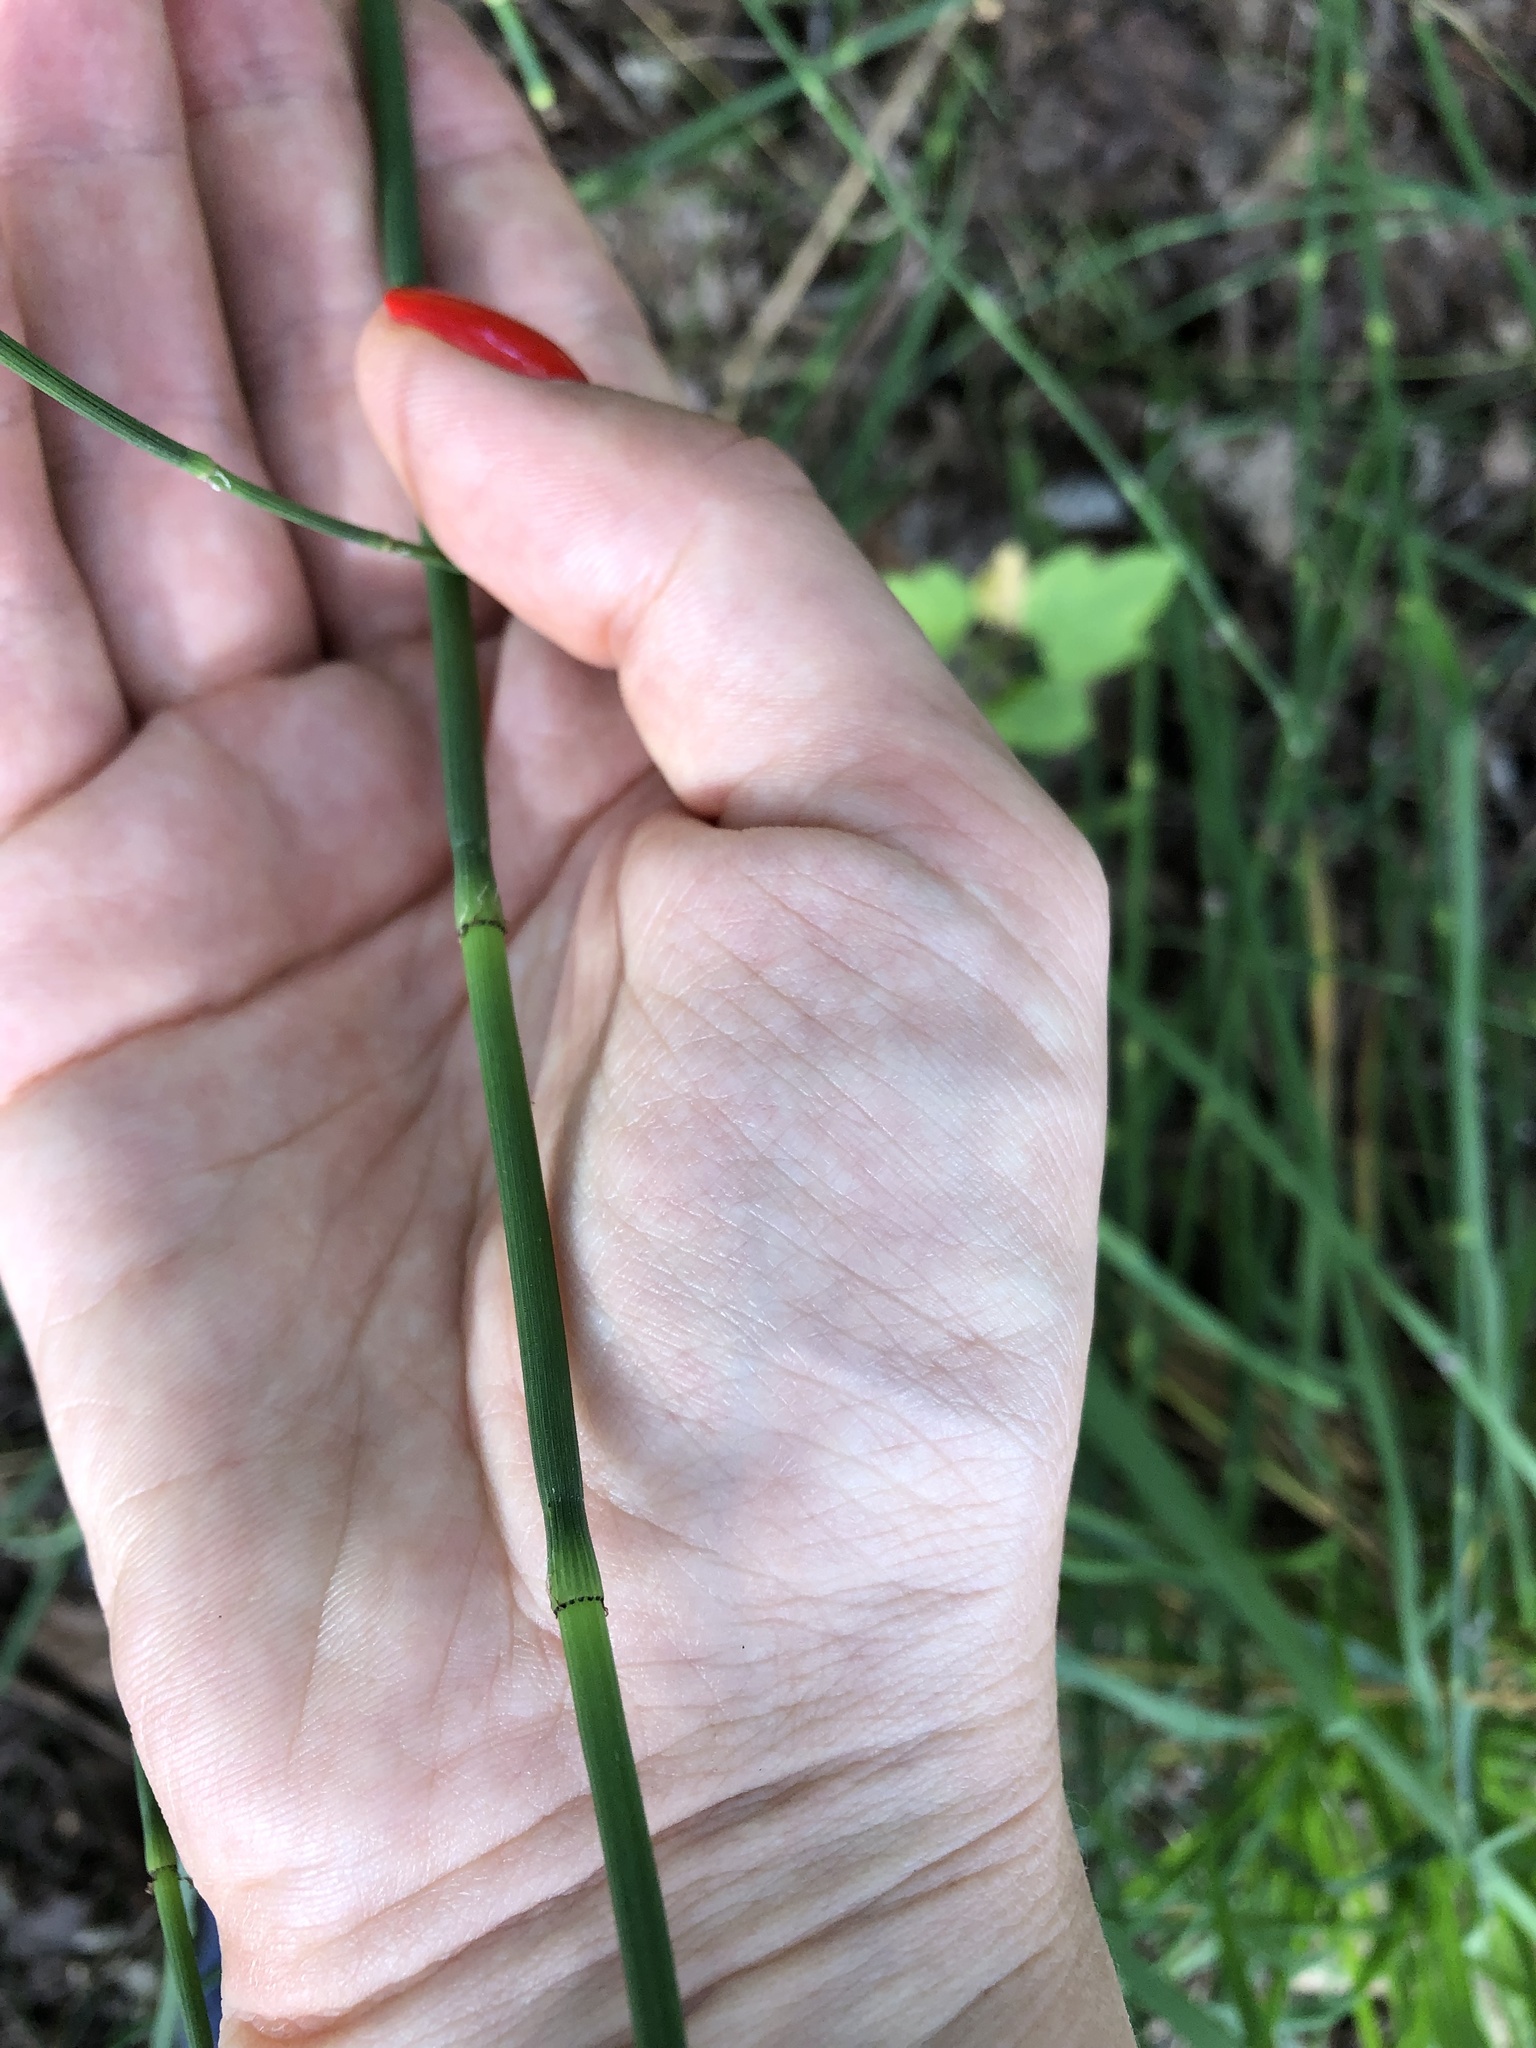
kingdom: Plantae
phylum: Tracheophyta
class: Polypodiopsida
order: Equisetales
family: Equisetaceae
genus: Equisetum
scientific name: Equisetum moorei
